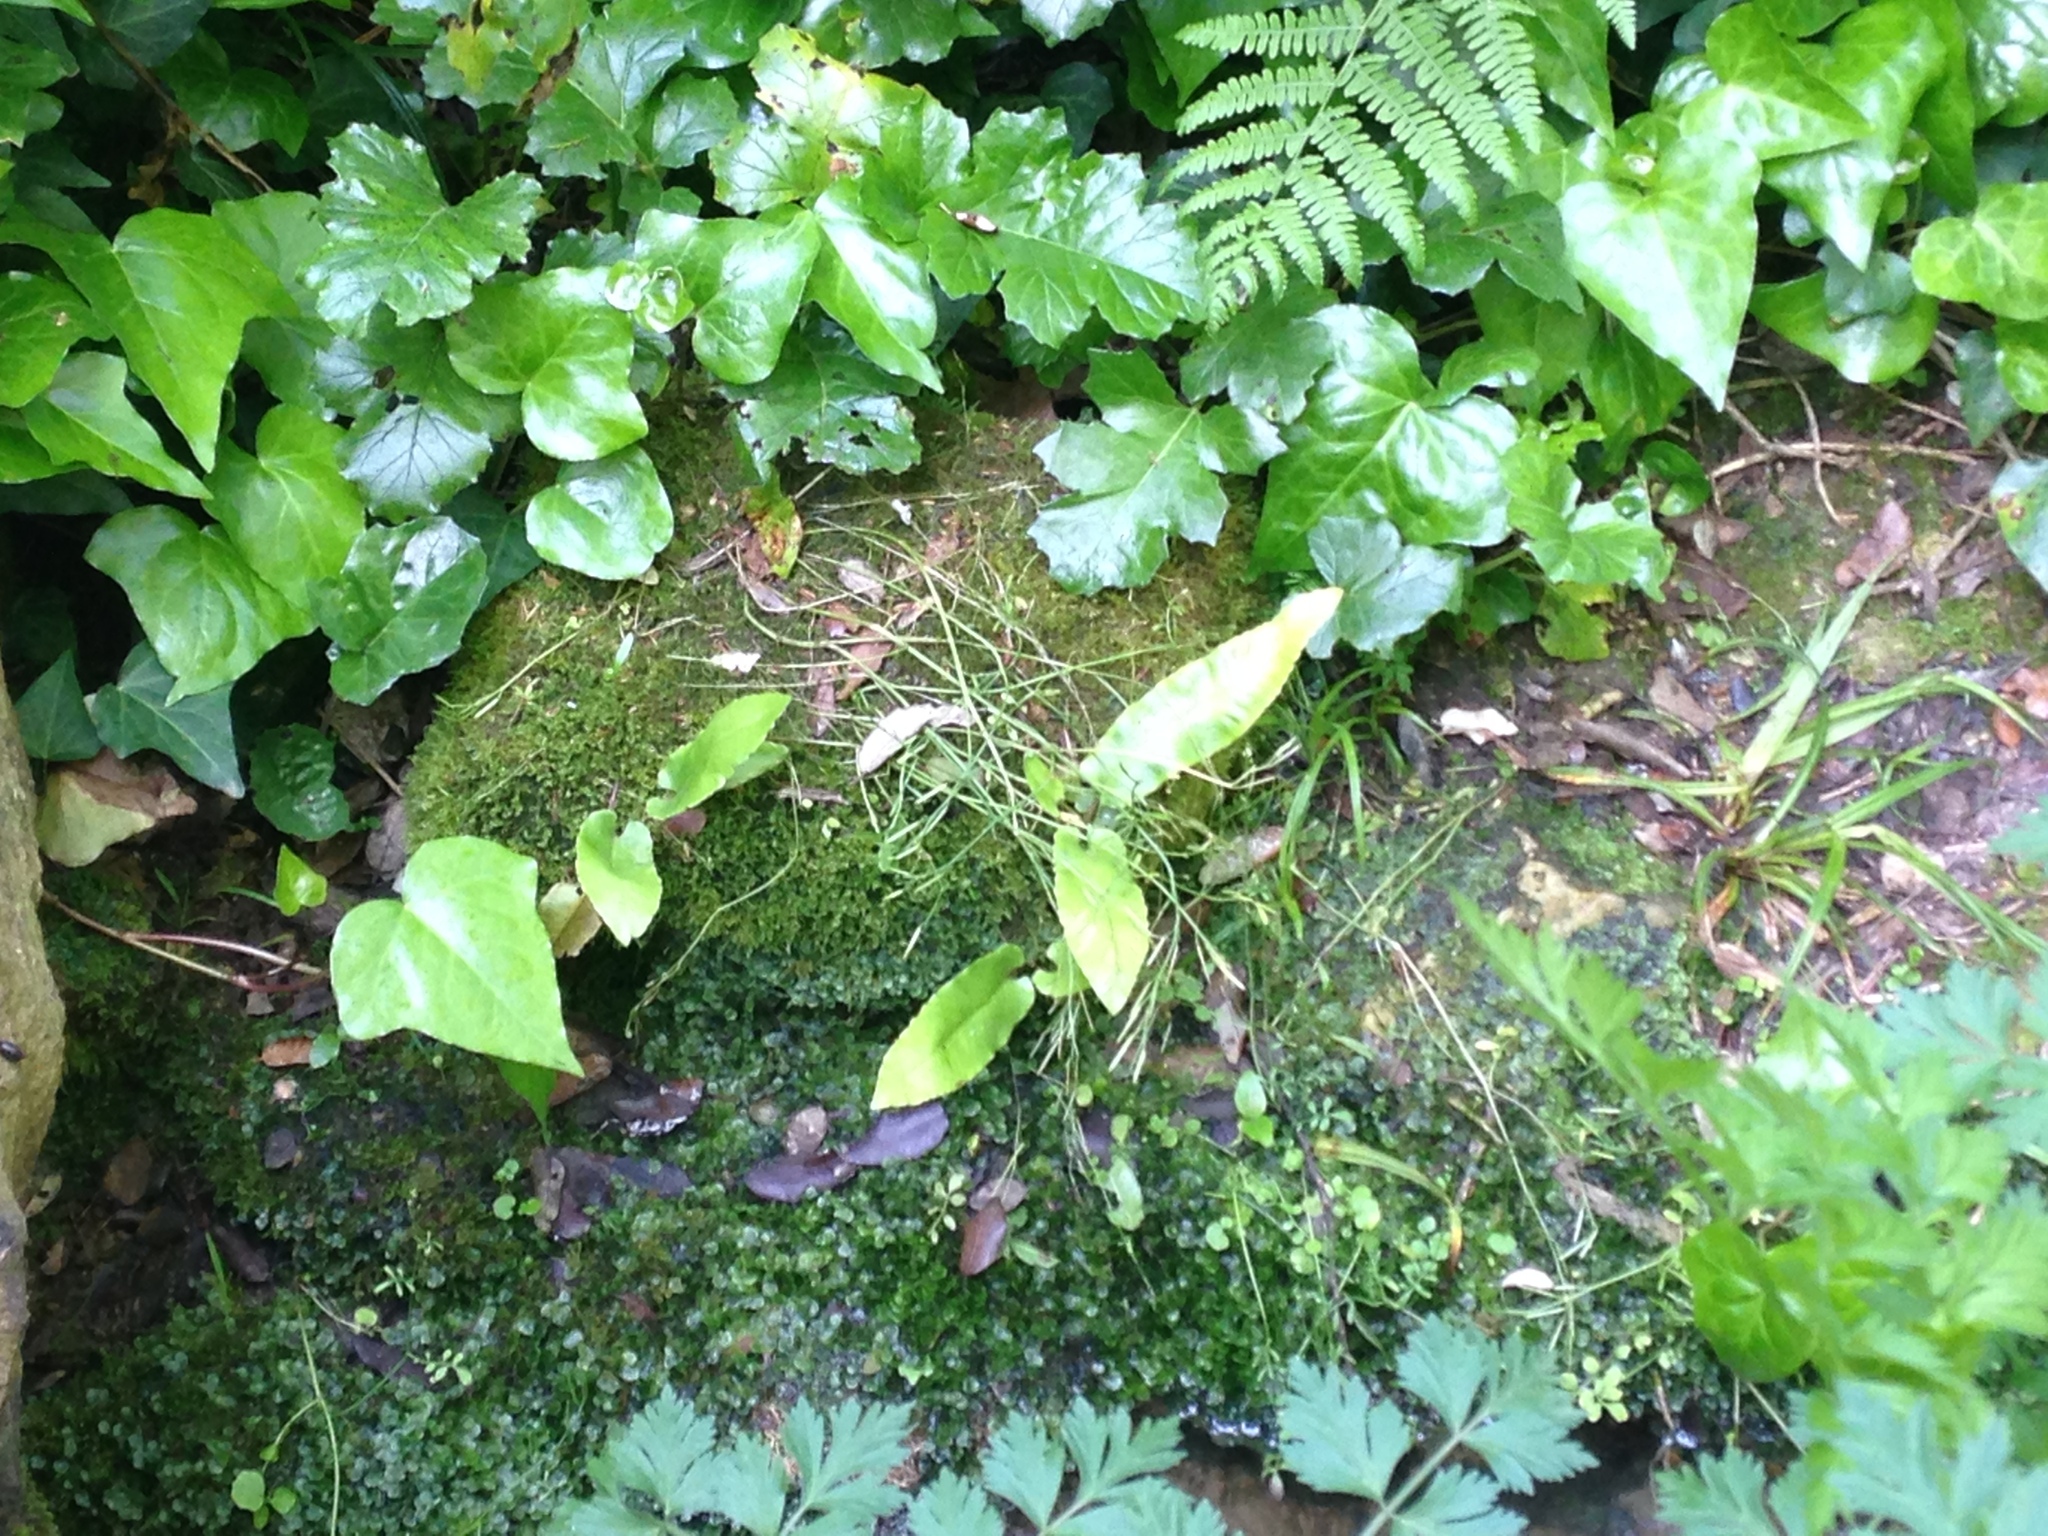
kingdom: Plantae
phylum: Tracheophyta
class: Polypodiopsida
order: Polypodiales
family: Aspleniaceae
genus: Asplenium
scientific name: Asplenium scolopendrium
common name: Hart's-tongue fern
